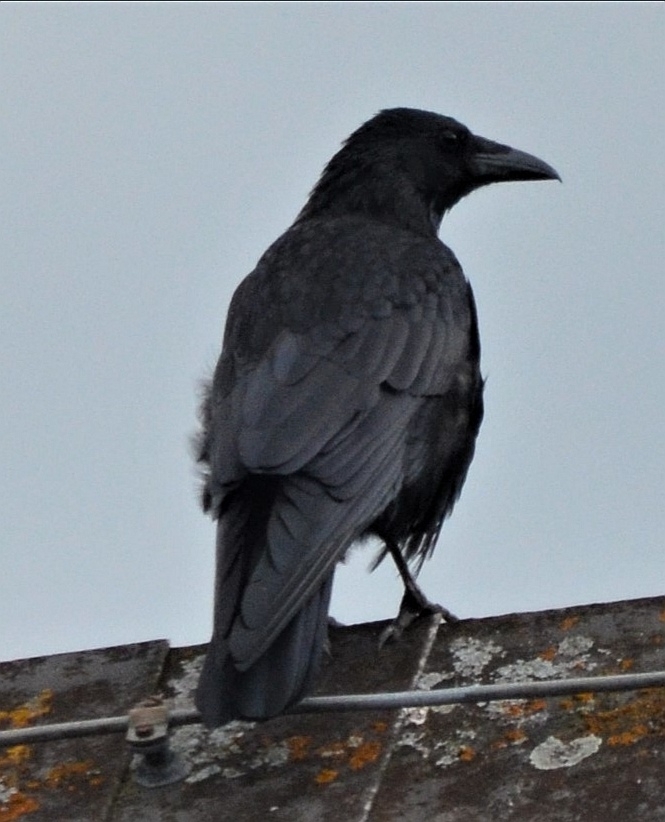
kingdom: Animalia
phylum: Chordata
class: Aves
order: Passeriformes
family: Corvidae
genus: Corvus
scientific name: Corvus corone
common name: Carrion crow
